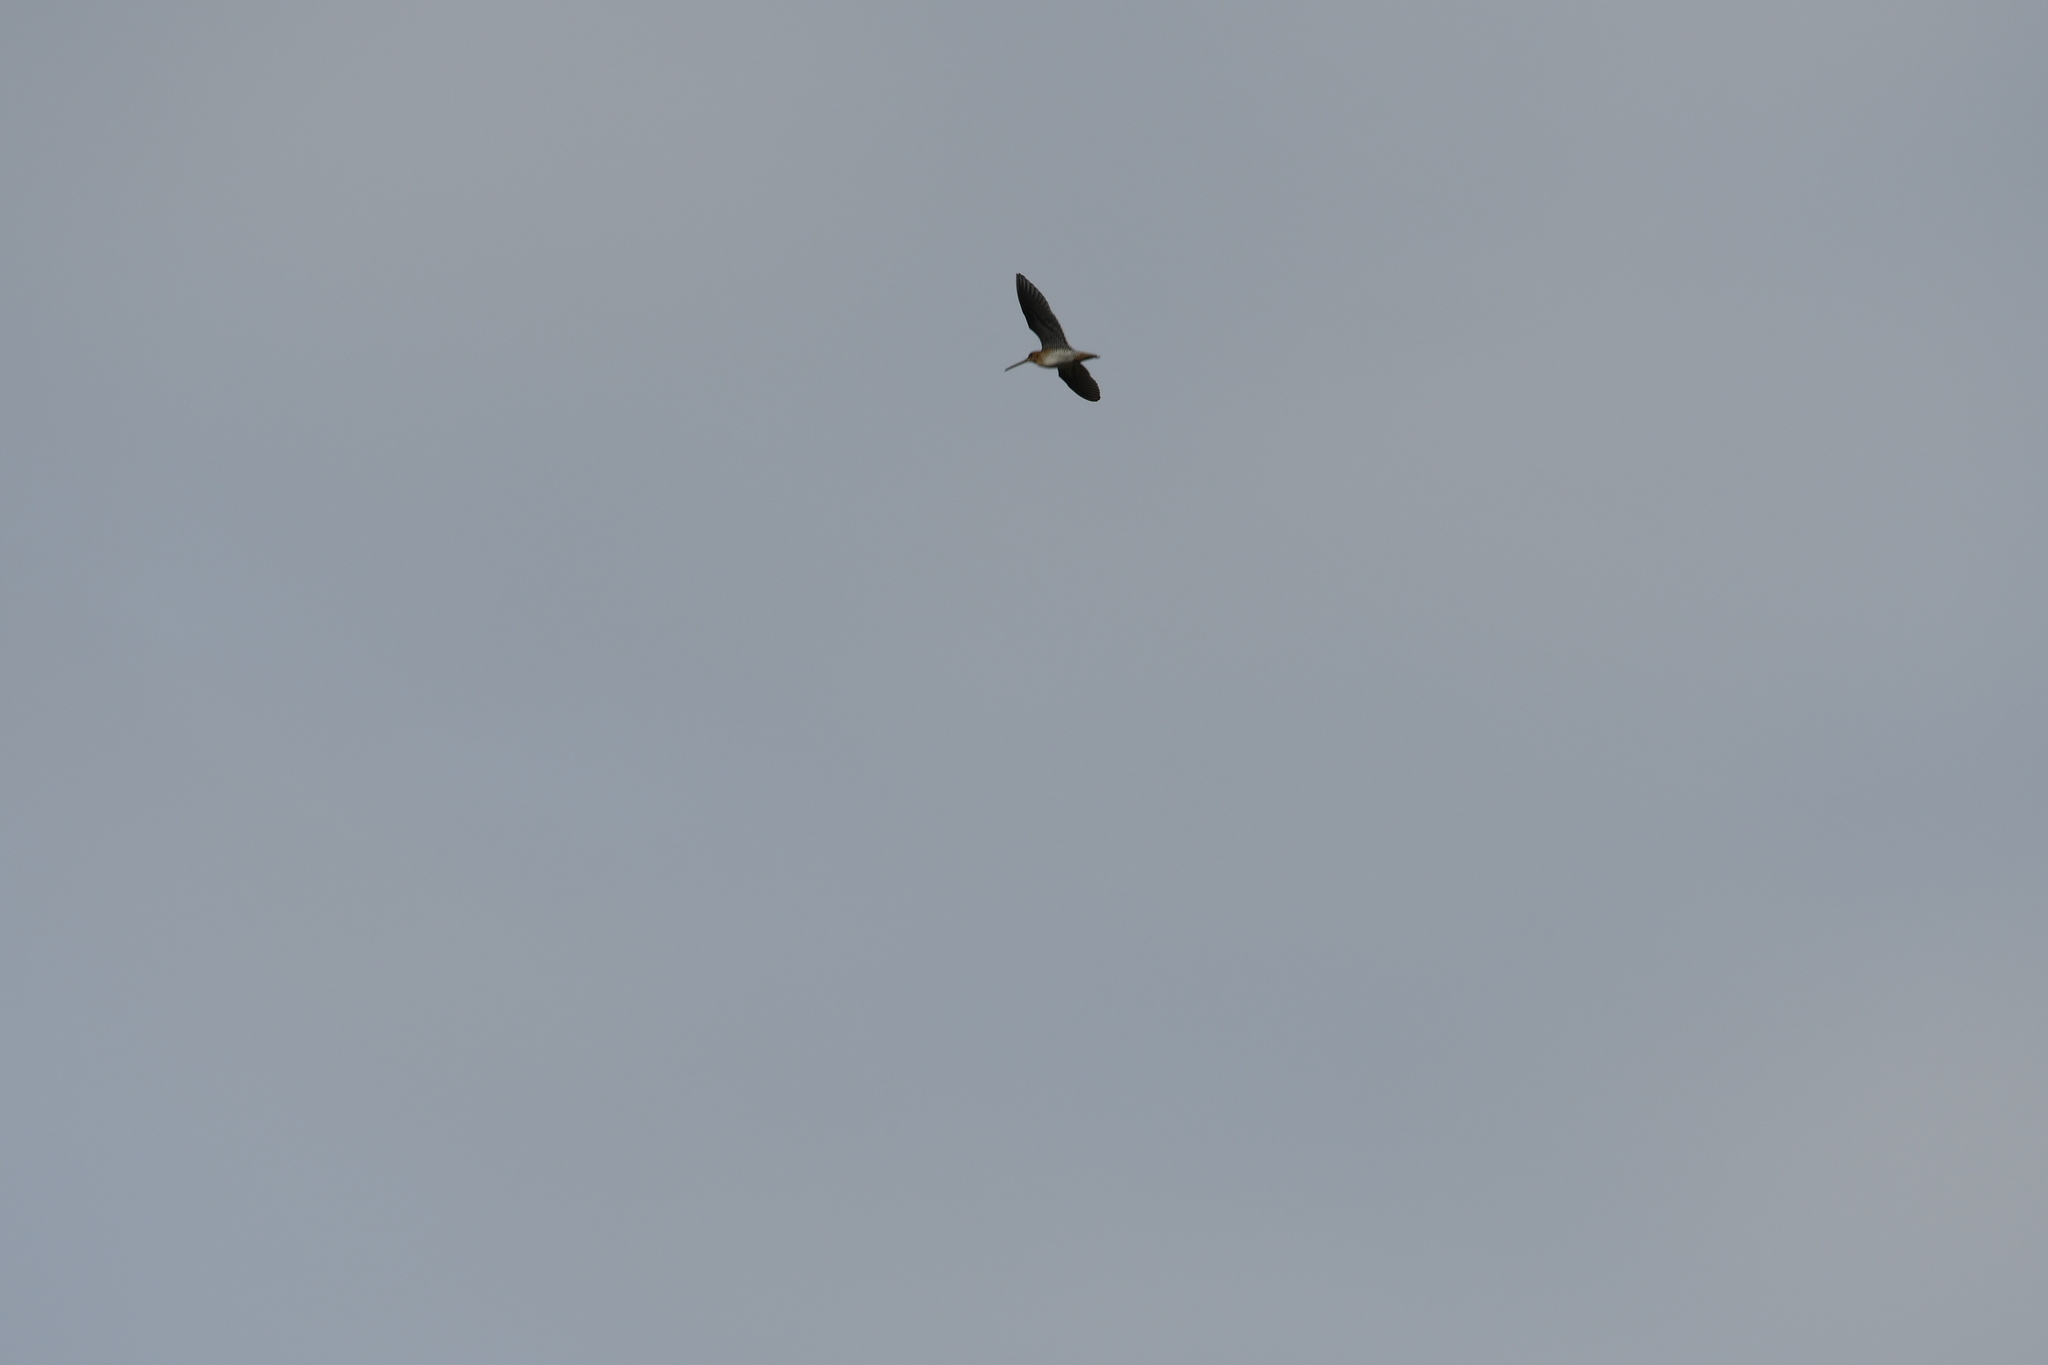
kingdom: Animalia
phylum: Chordata
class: Aves
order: Charadriiformes
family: Scolopacidae
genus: Gallinago
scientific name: Gallinago gallinago
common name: Common snipe
